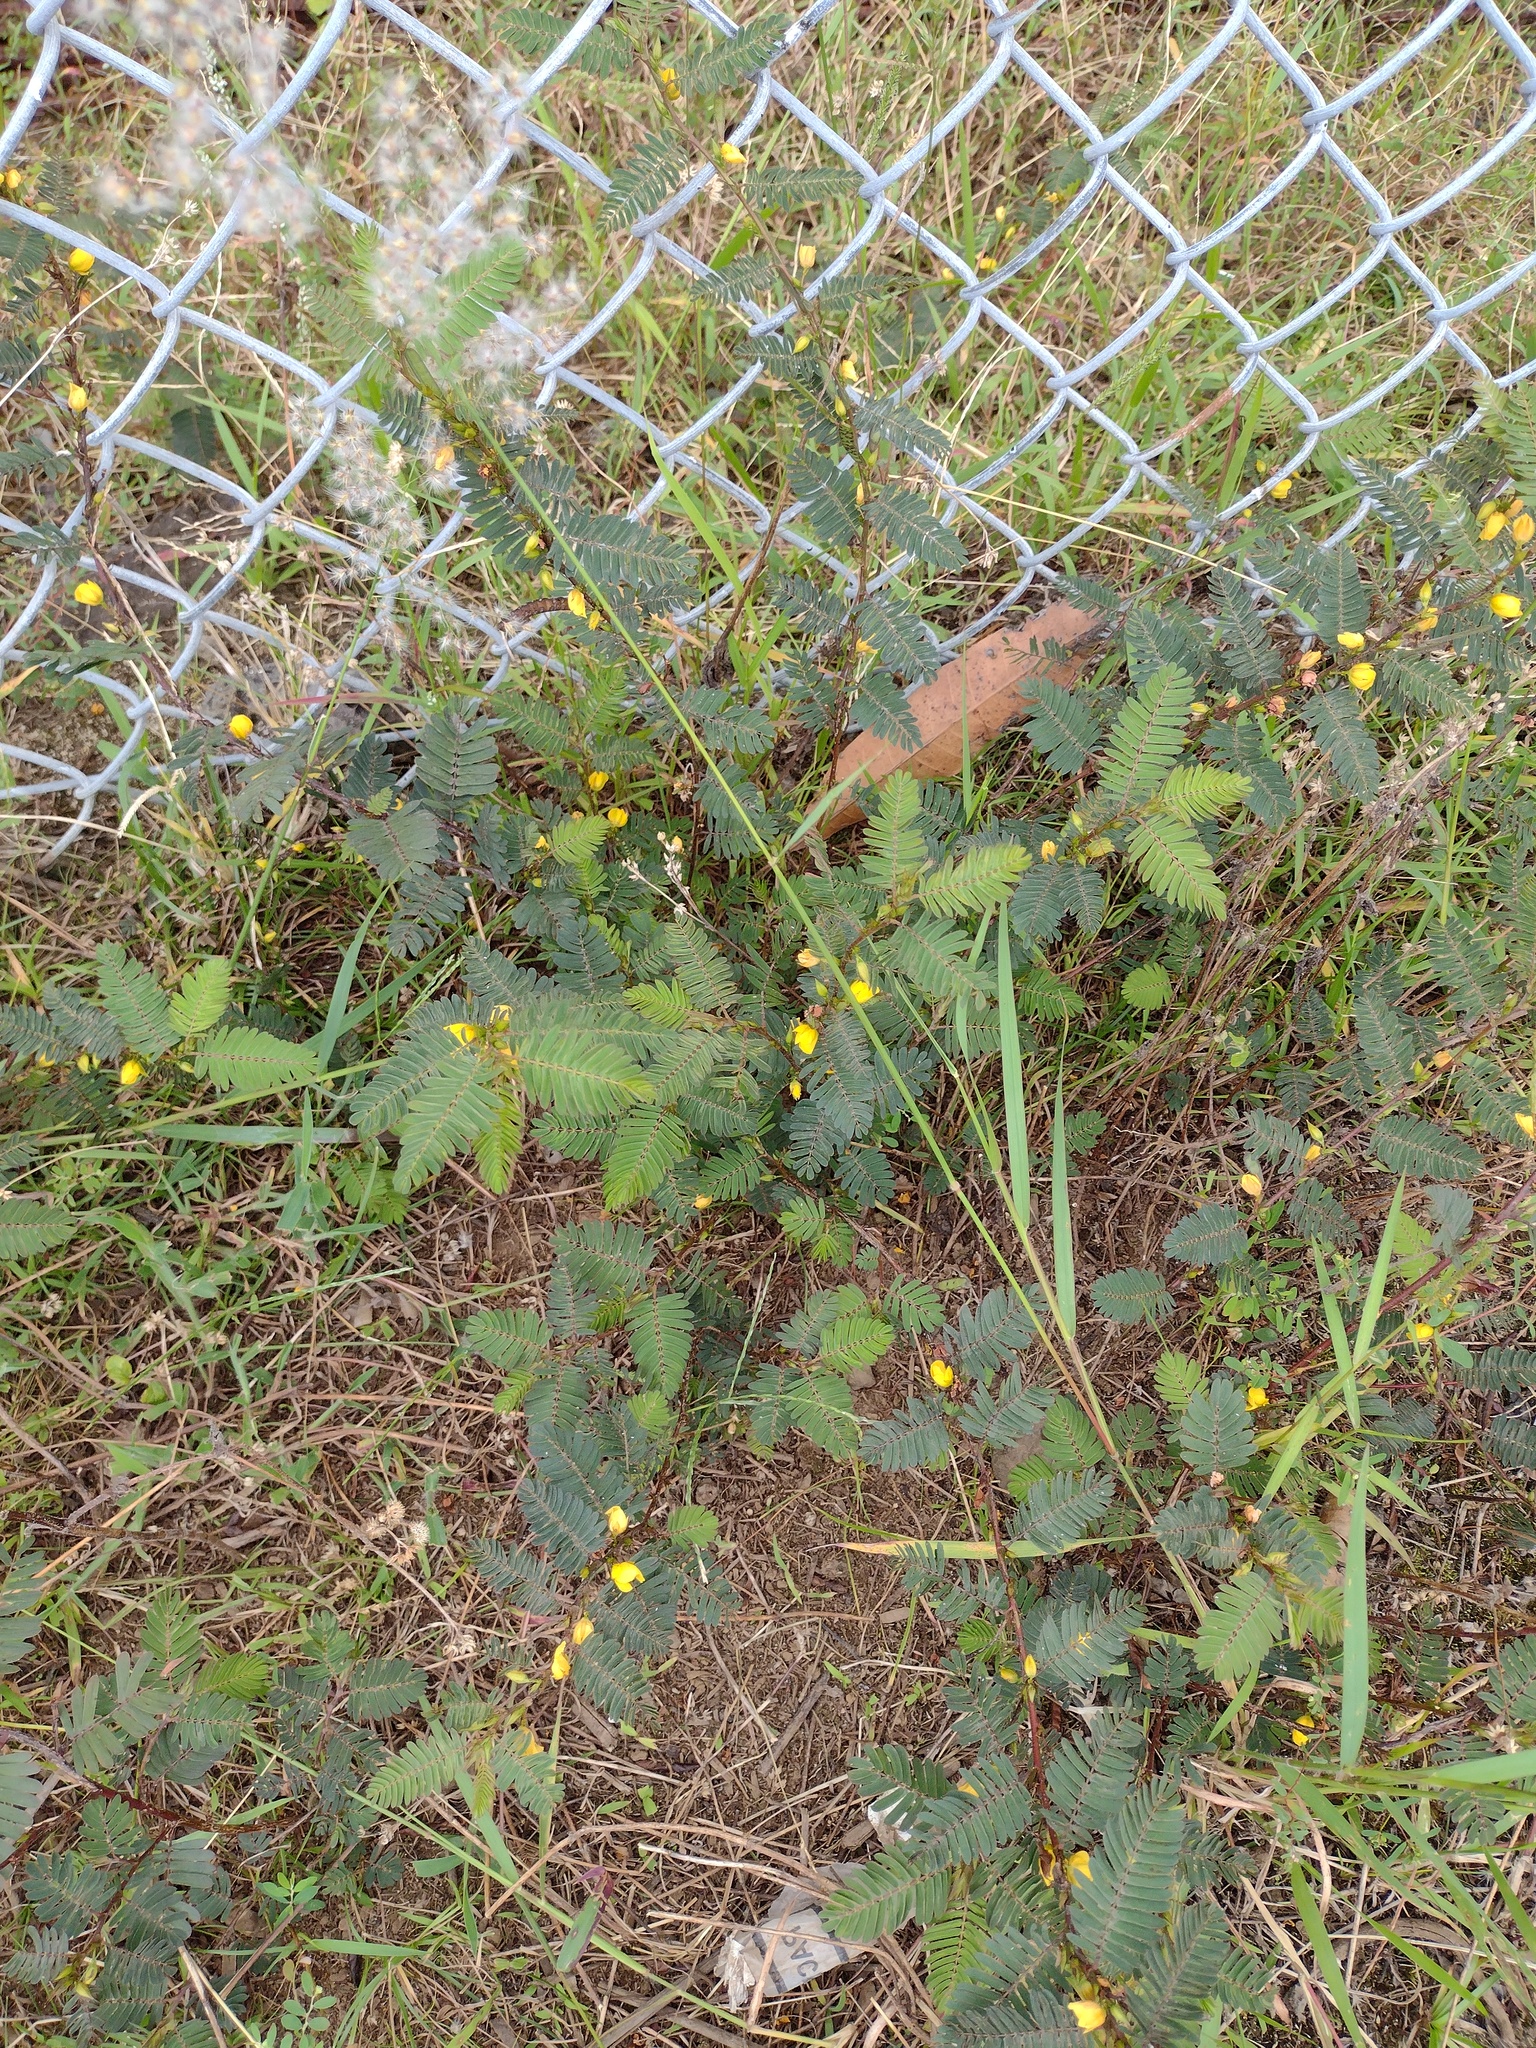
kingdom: Plantae
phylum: Tracheophyta
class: Magnoliopsida
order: Fabales
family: Fabaceae
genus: Chamaecrista
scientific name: Chamaecrista nictitans
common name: Sensitive cassia
